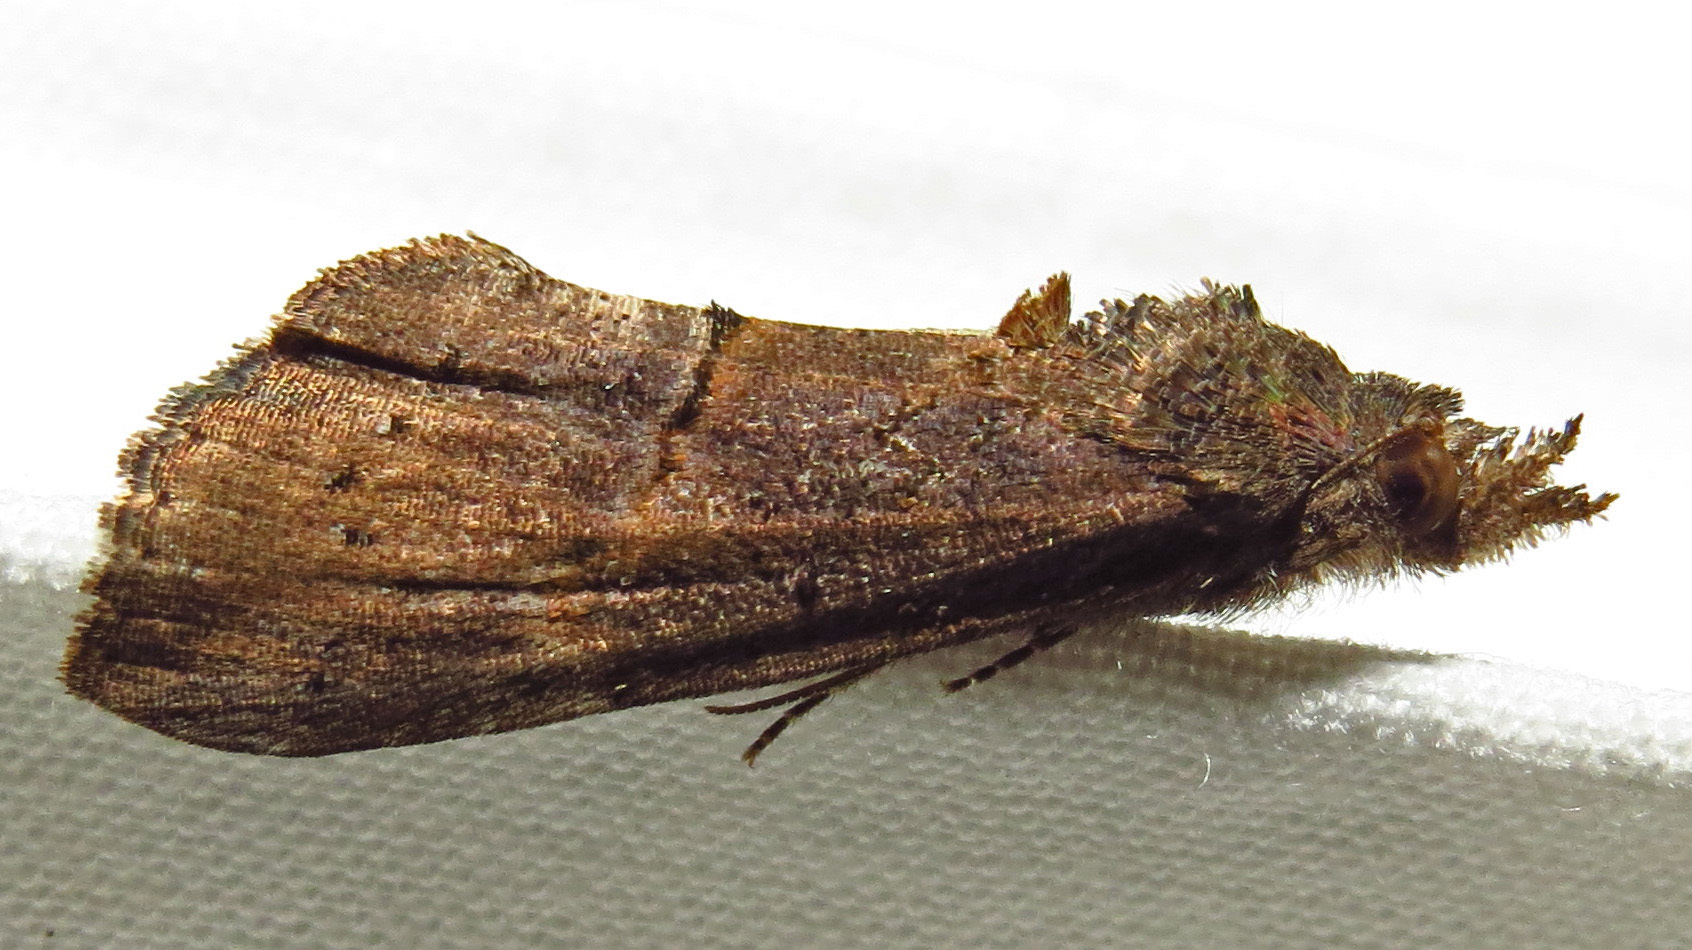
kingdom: Animalia
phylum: Arthropoda
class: Insecta
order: Lepidoptera
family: Erebidae
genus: Hypena
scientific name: Hypena scabra
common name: Green cloverworm
